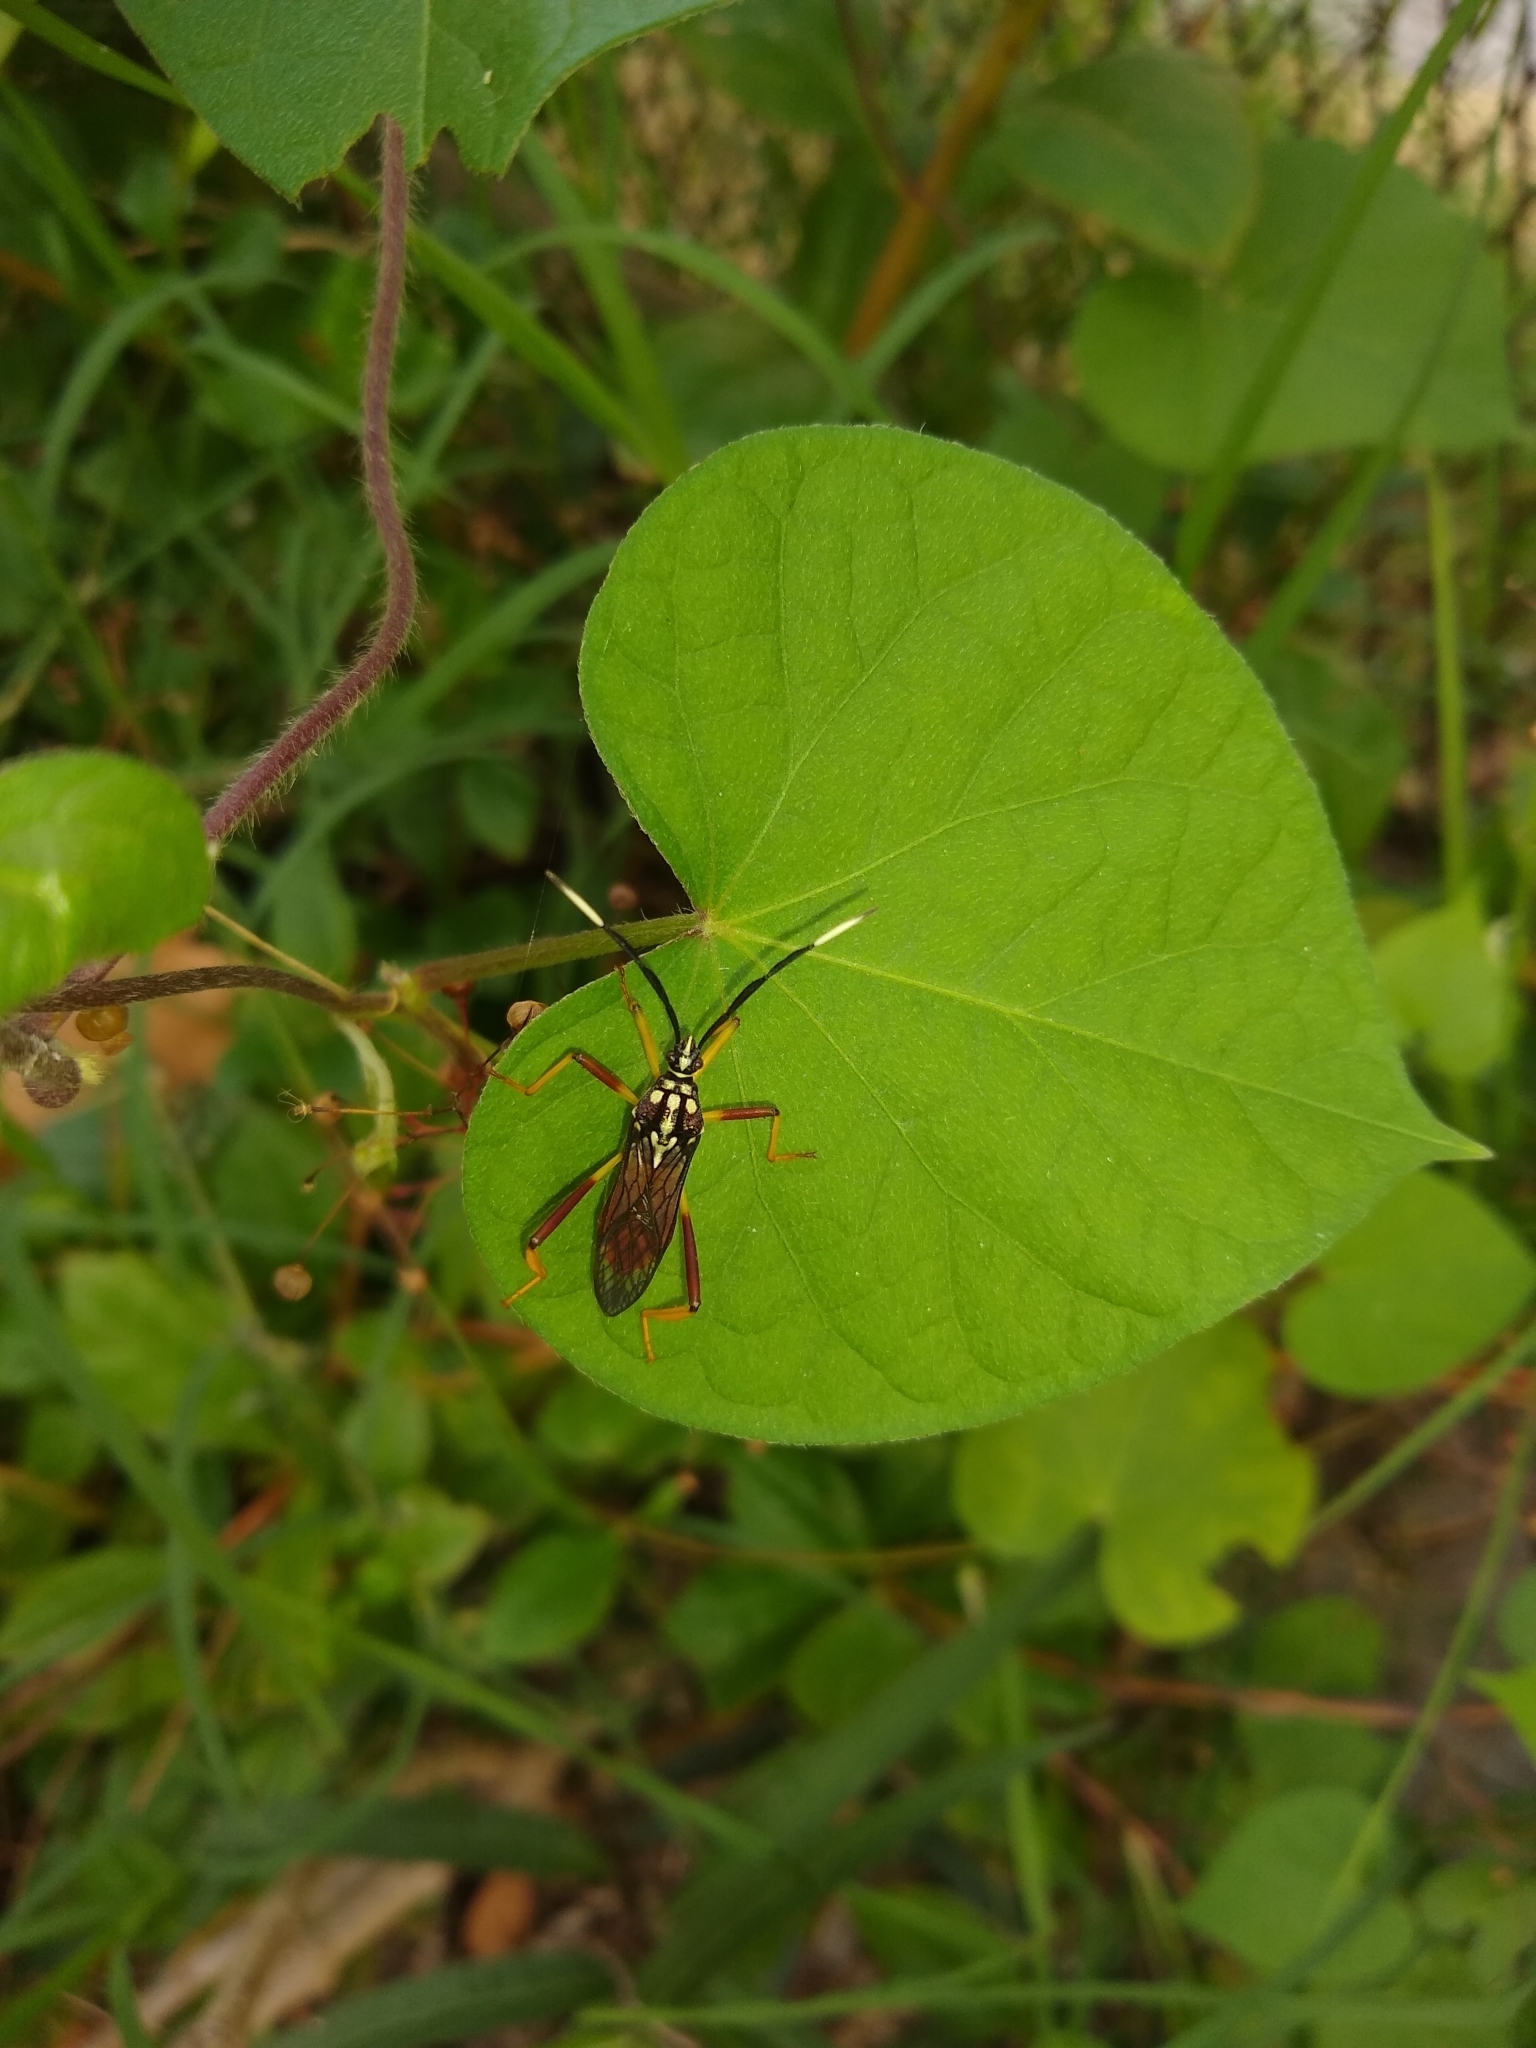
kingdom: Animalia
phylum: Arthropoda
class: Insecta
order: Hemiptera
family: Coreidae
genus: Holhymenia
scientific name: Holhymenia histrio
